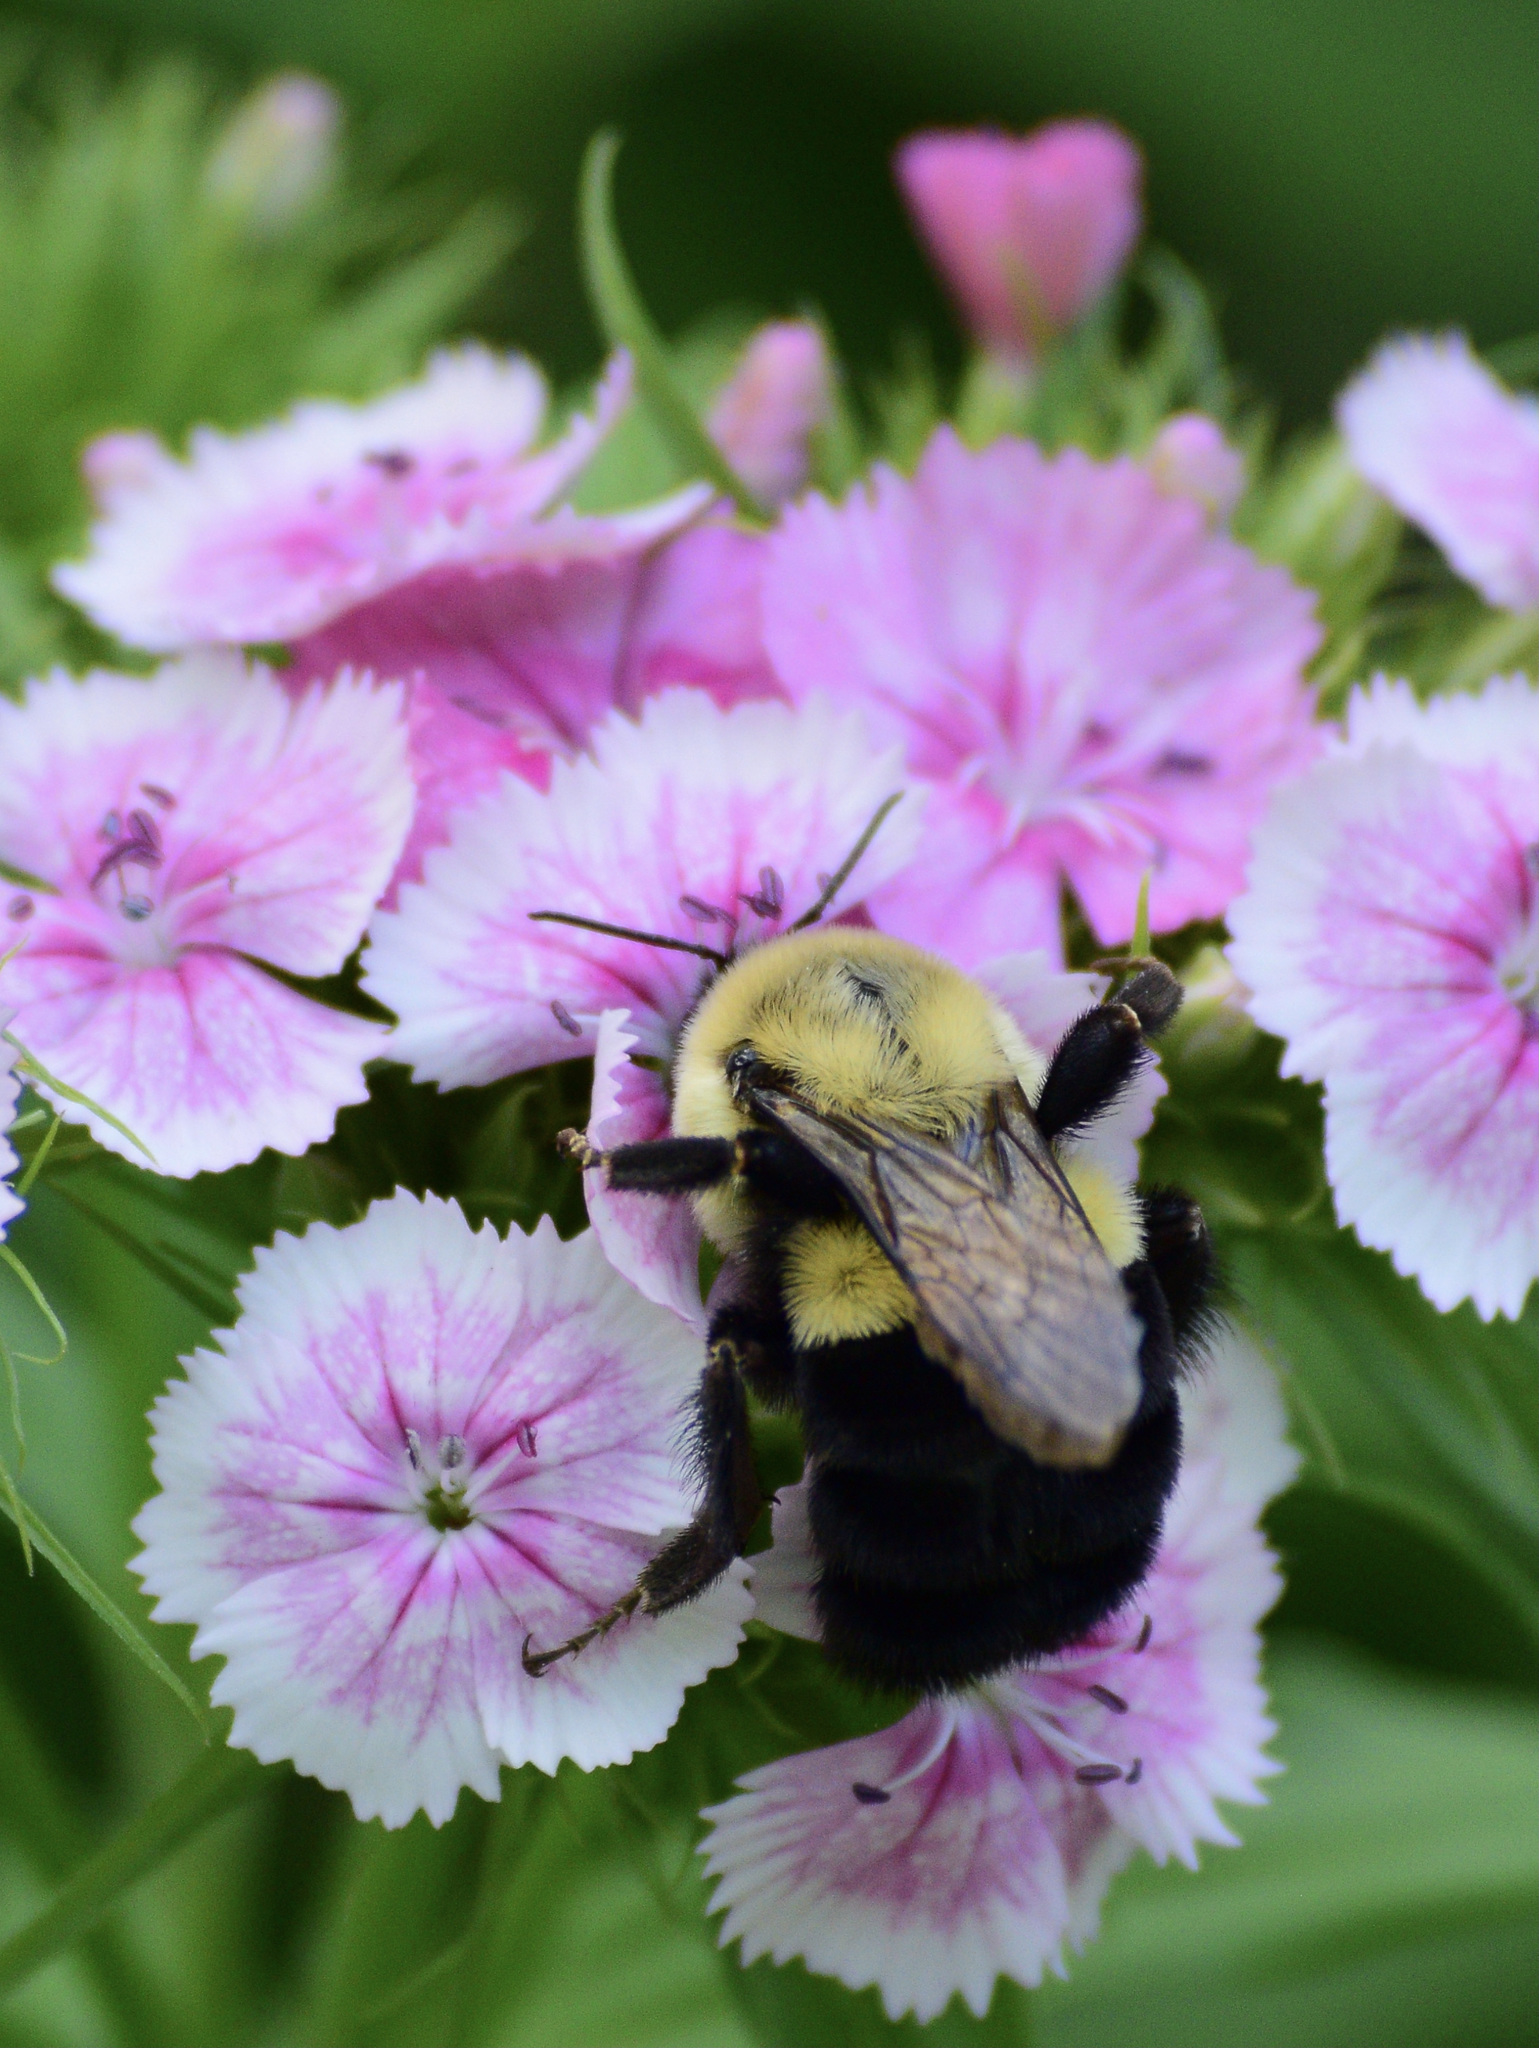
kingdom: Animalia
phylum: Arthropoda
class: Insecta
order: Hymenoptera
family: Apidae
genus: Bombus
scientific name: Bombus impatiens
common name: Common eastern bumble bee
